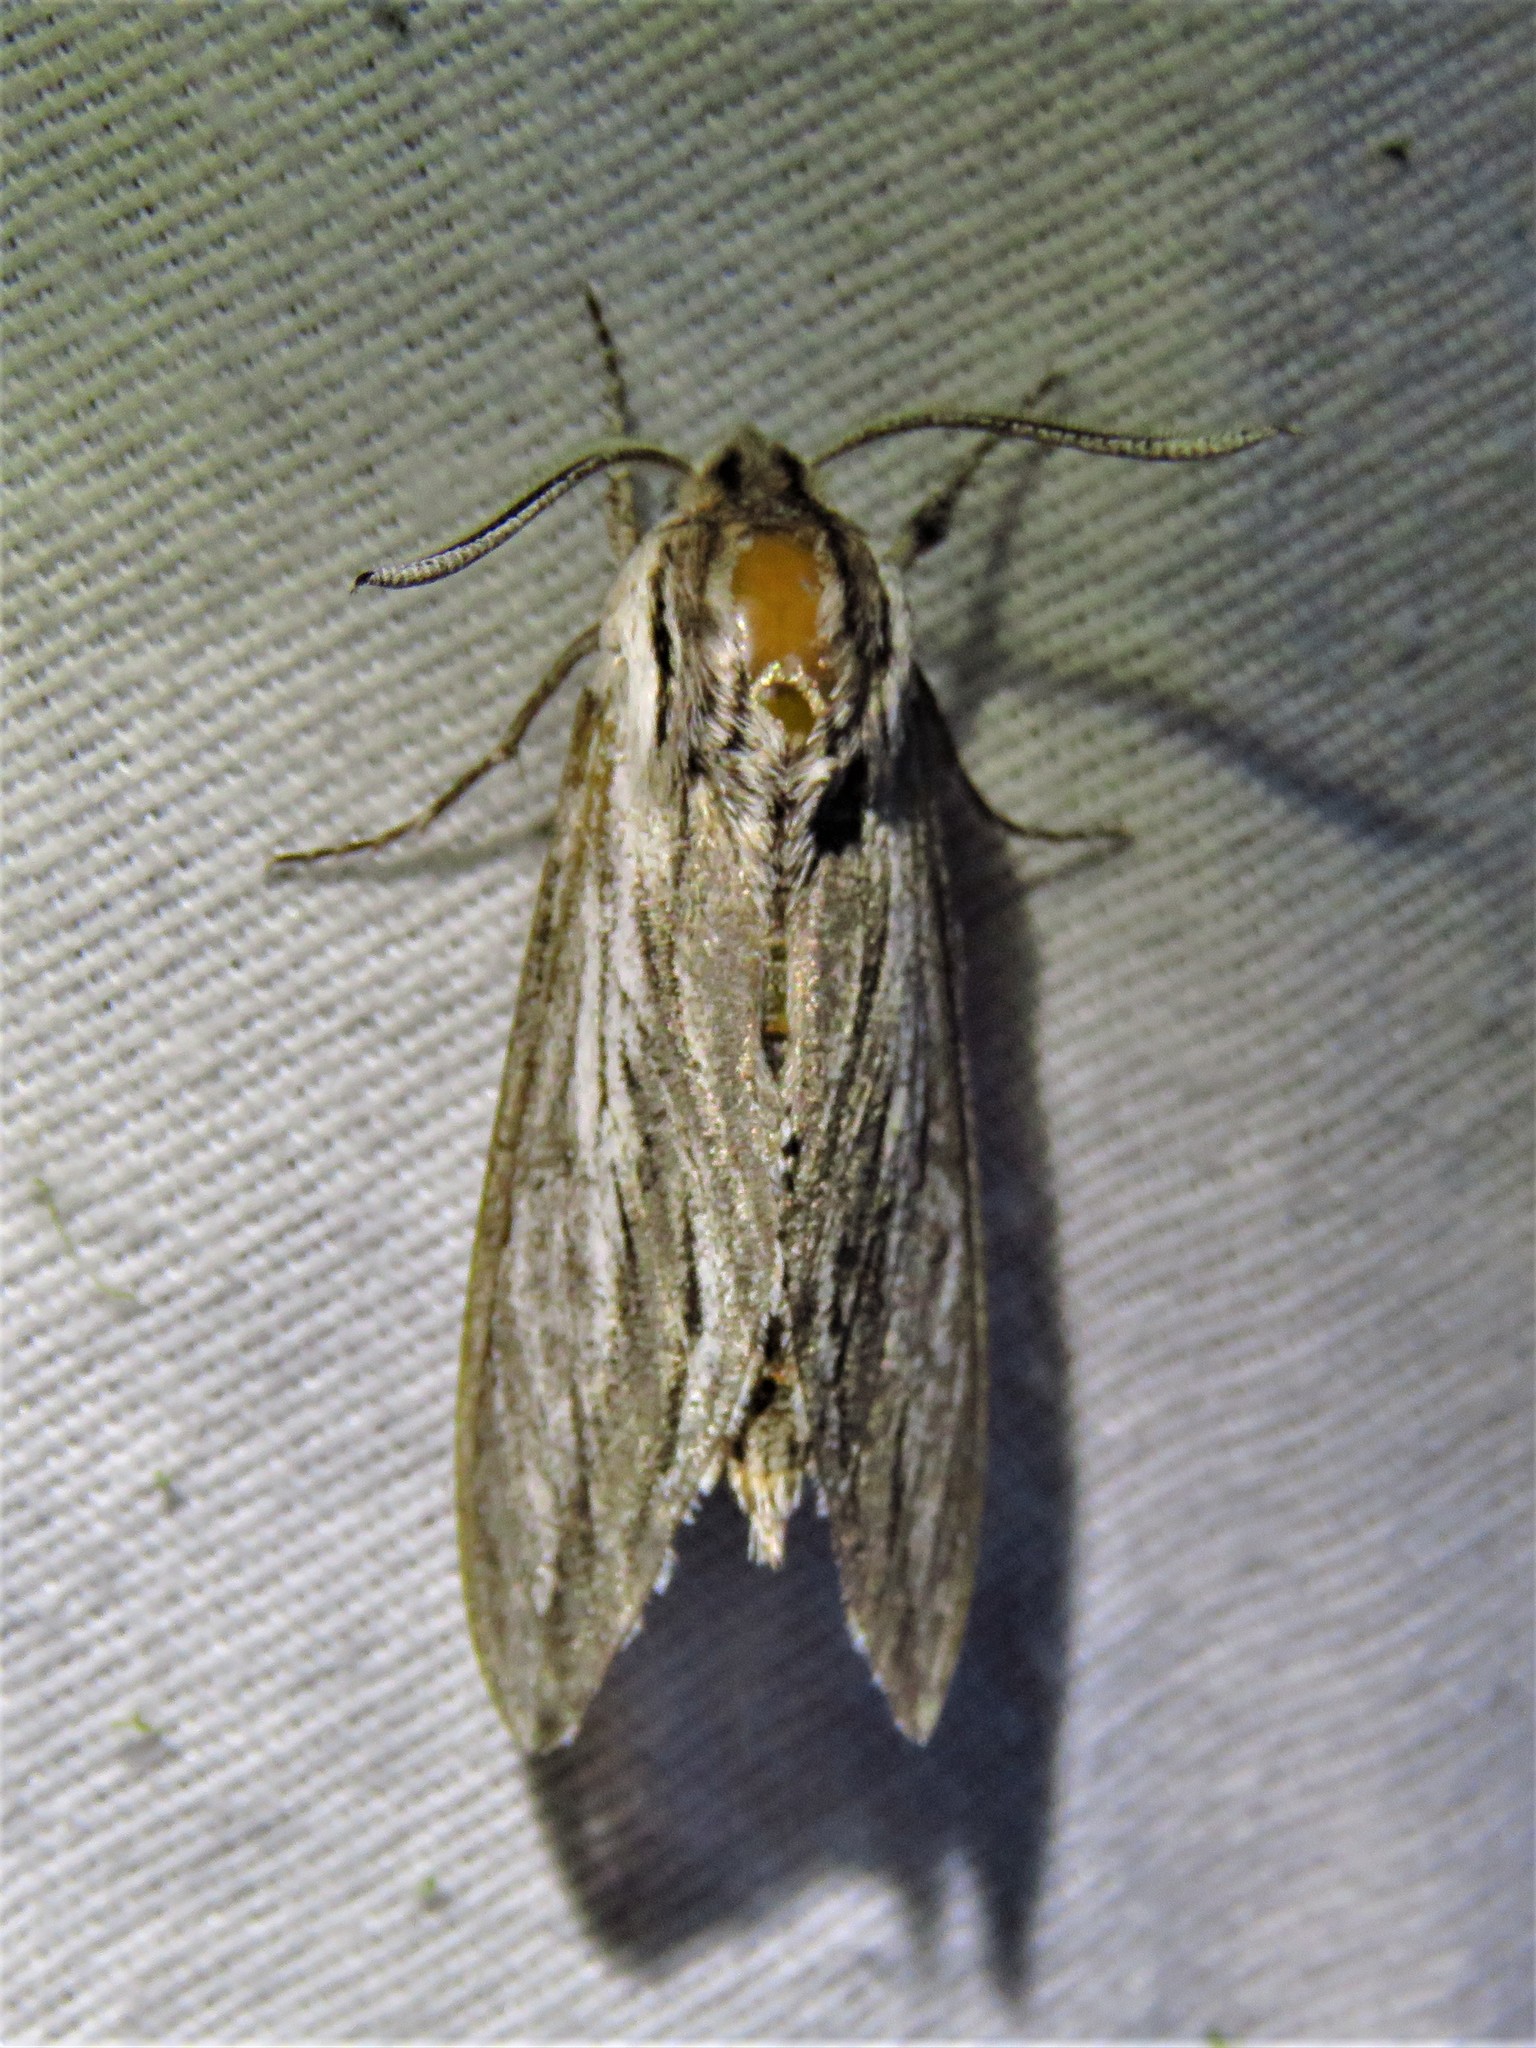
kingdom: Animalia
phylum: Arthropoda
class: Insecta
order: Lepidoptera
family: Sphingidae
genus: Sphinx
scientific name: Sphinx vanbuskirki
